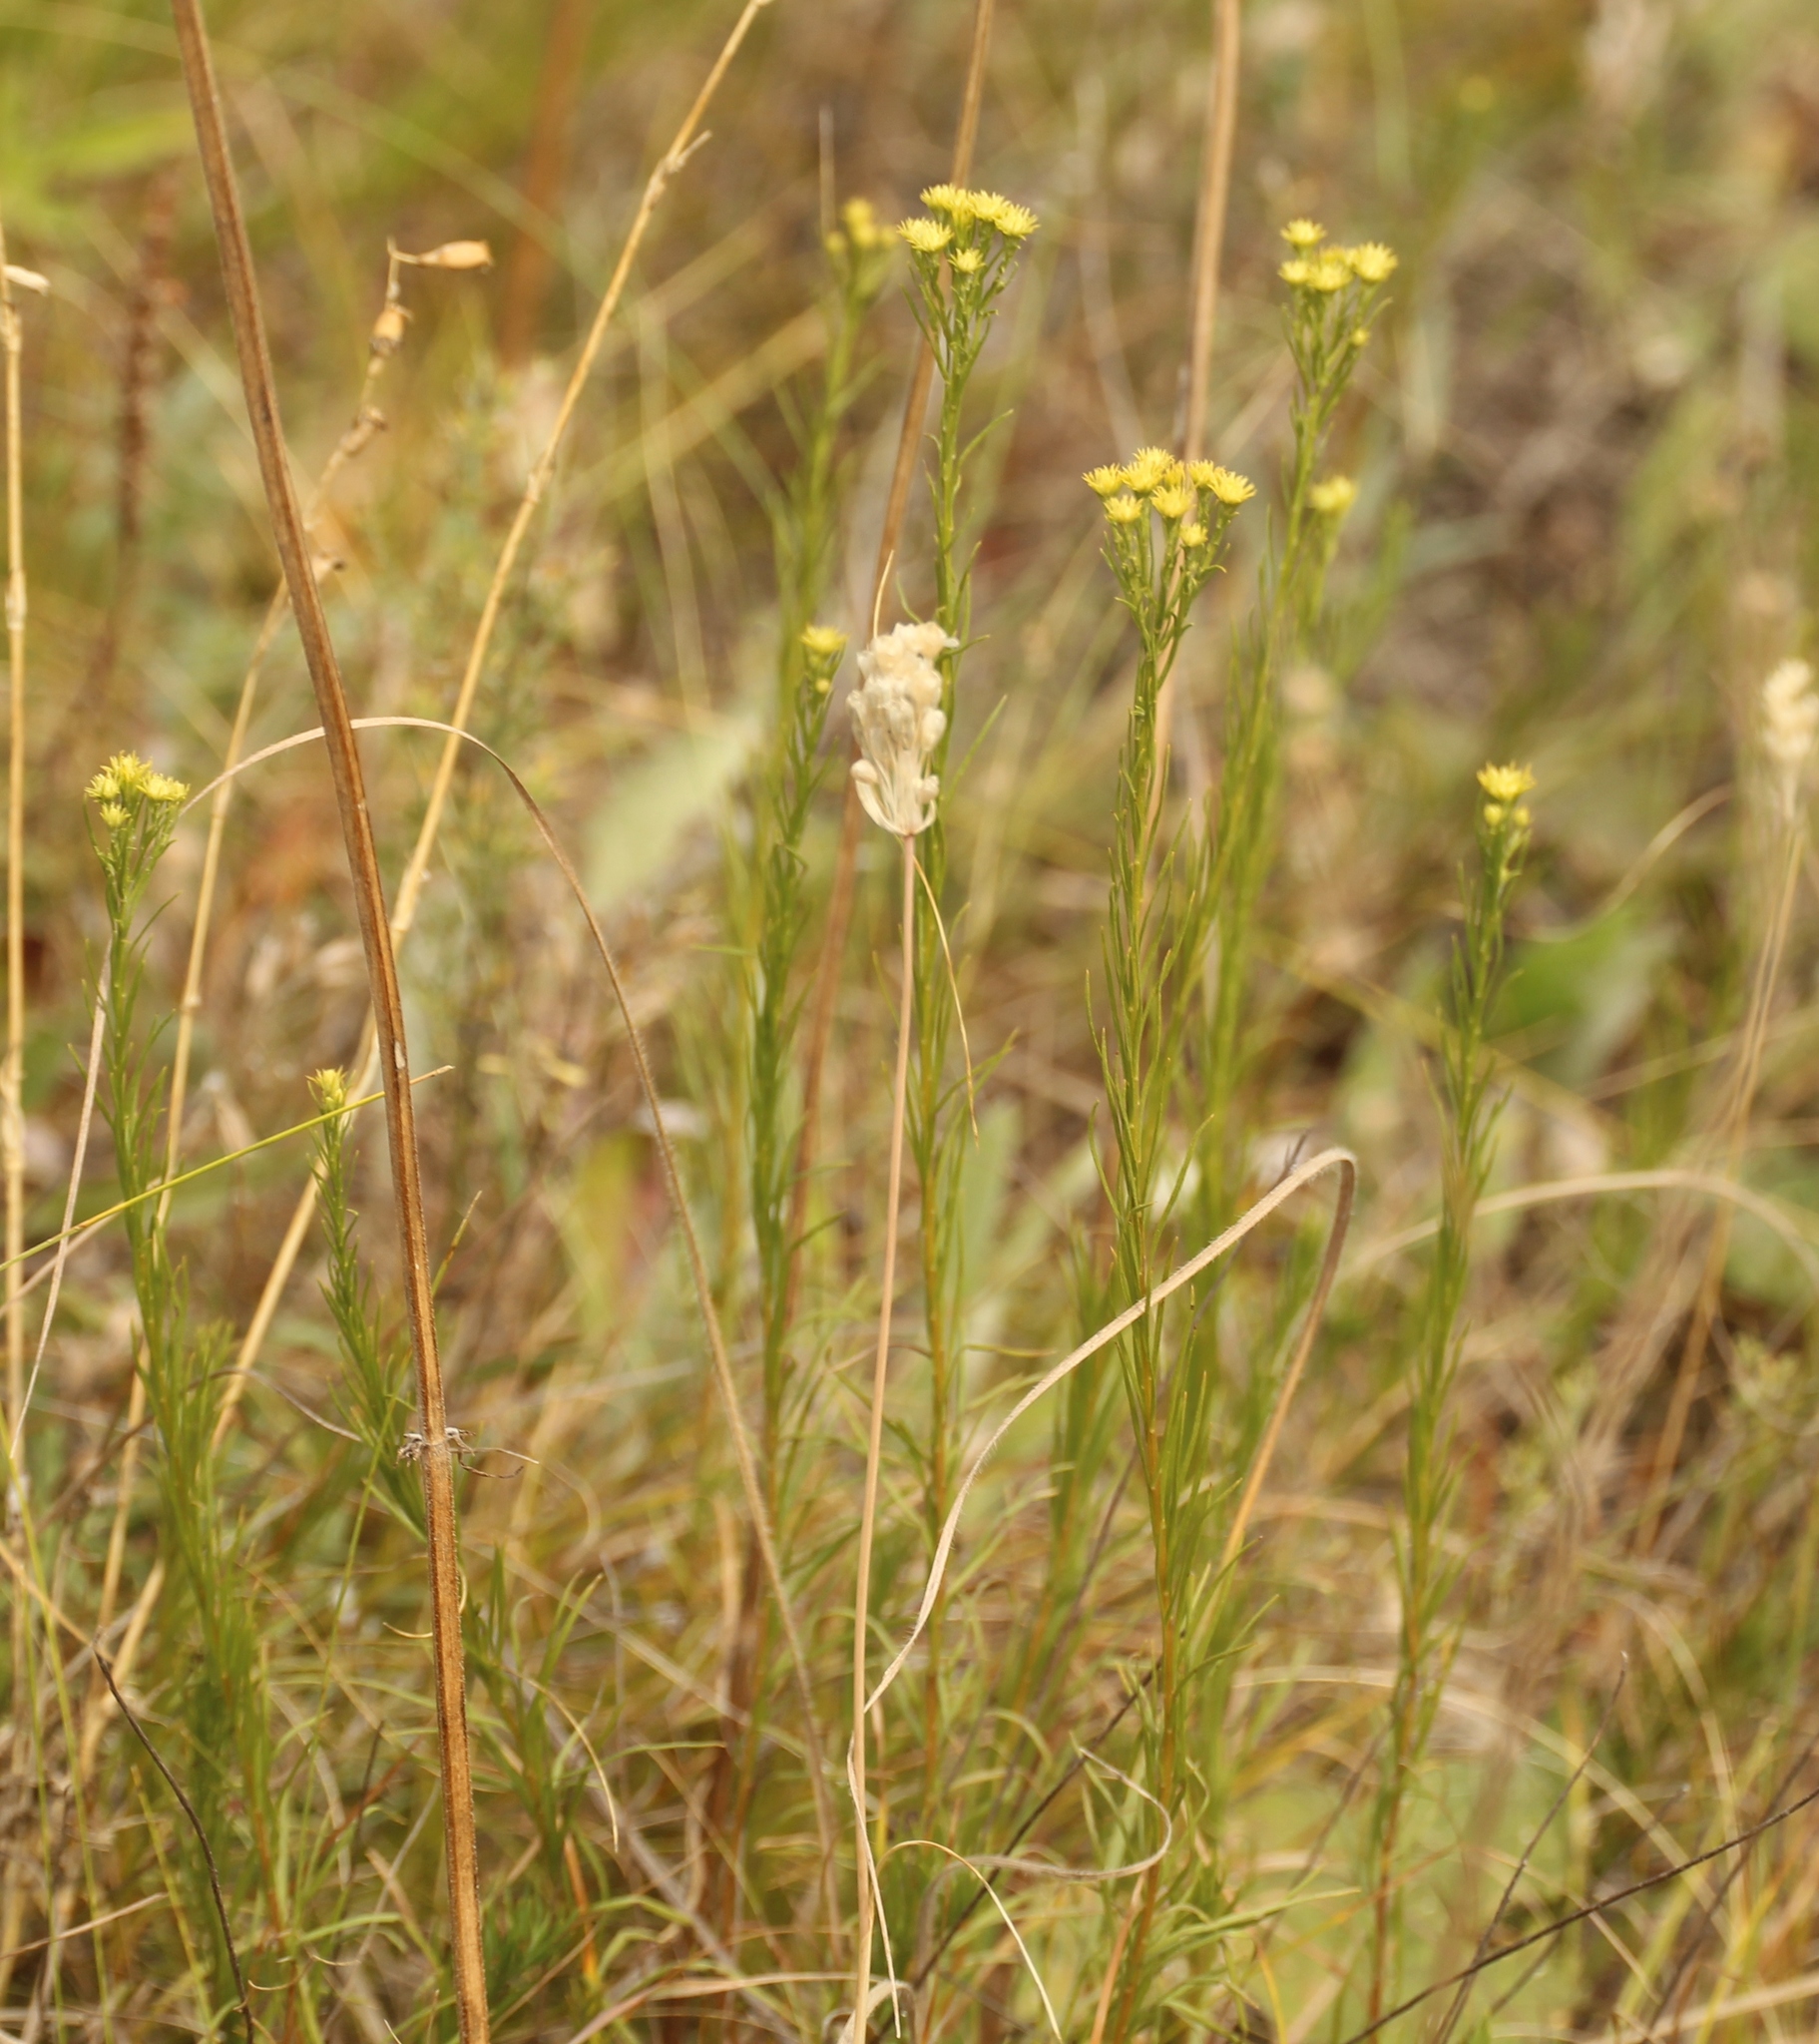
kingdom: Plantae
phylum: Tracheophyta
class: Magnoliopsida
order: Asterales
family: Asteraceae
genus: Galatella
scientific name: Galatella linosyris
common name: Goldilocks aster
